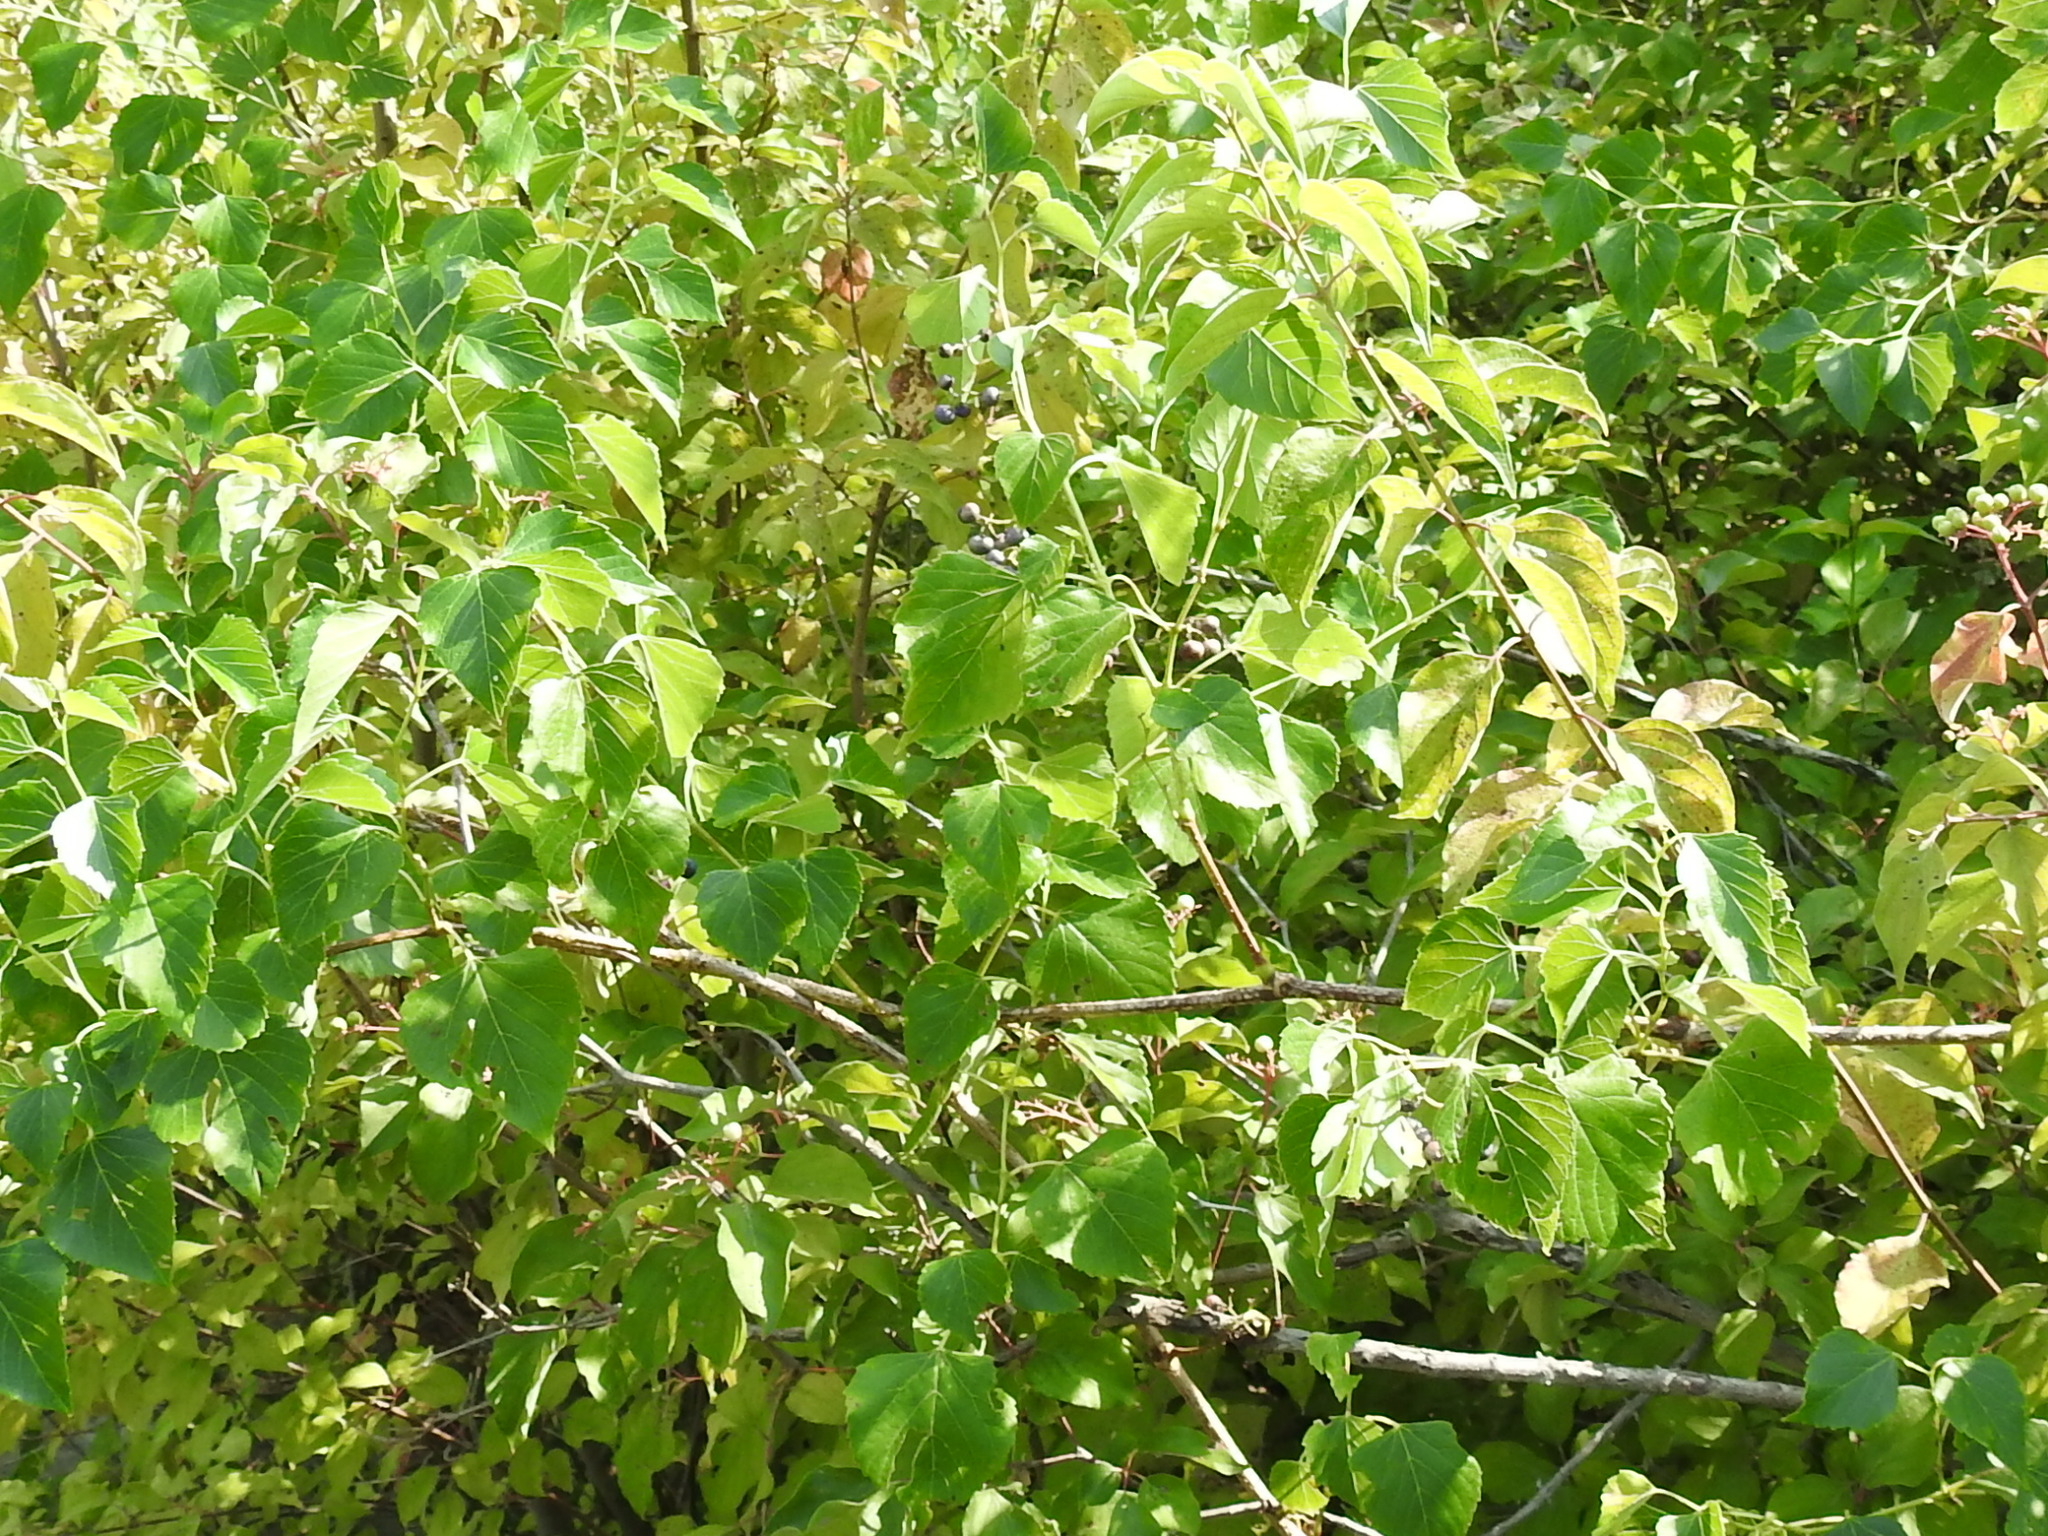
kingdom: Plantae
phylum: Tracheophyta
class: Magnoliopsida
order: Vitales
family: Vitaceae
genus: Ampelopsis
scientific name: Ampelopsis cordata
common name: Heart-leaf ampelopsis
